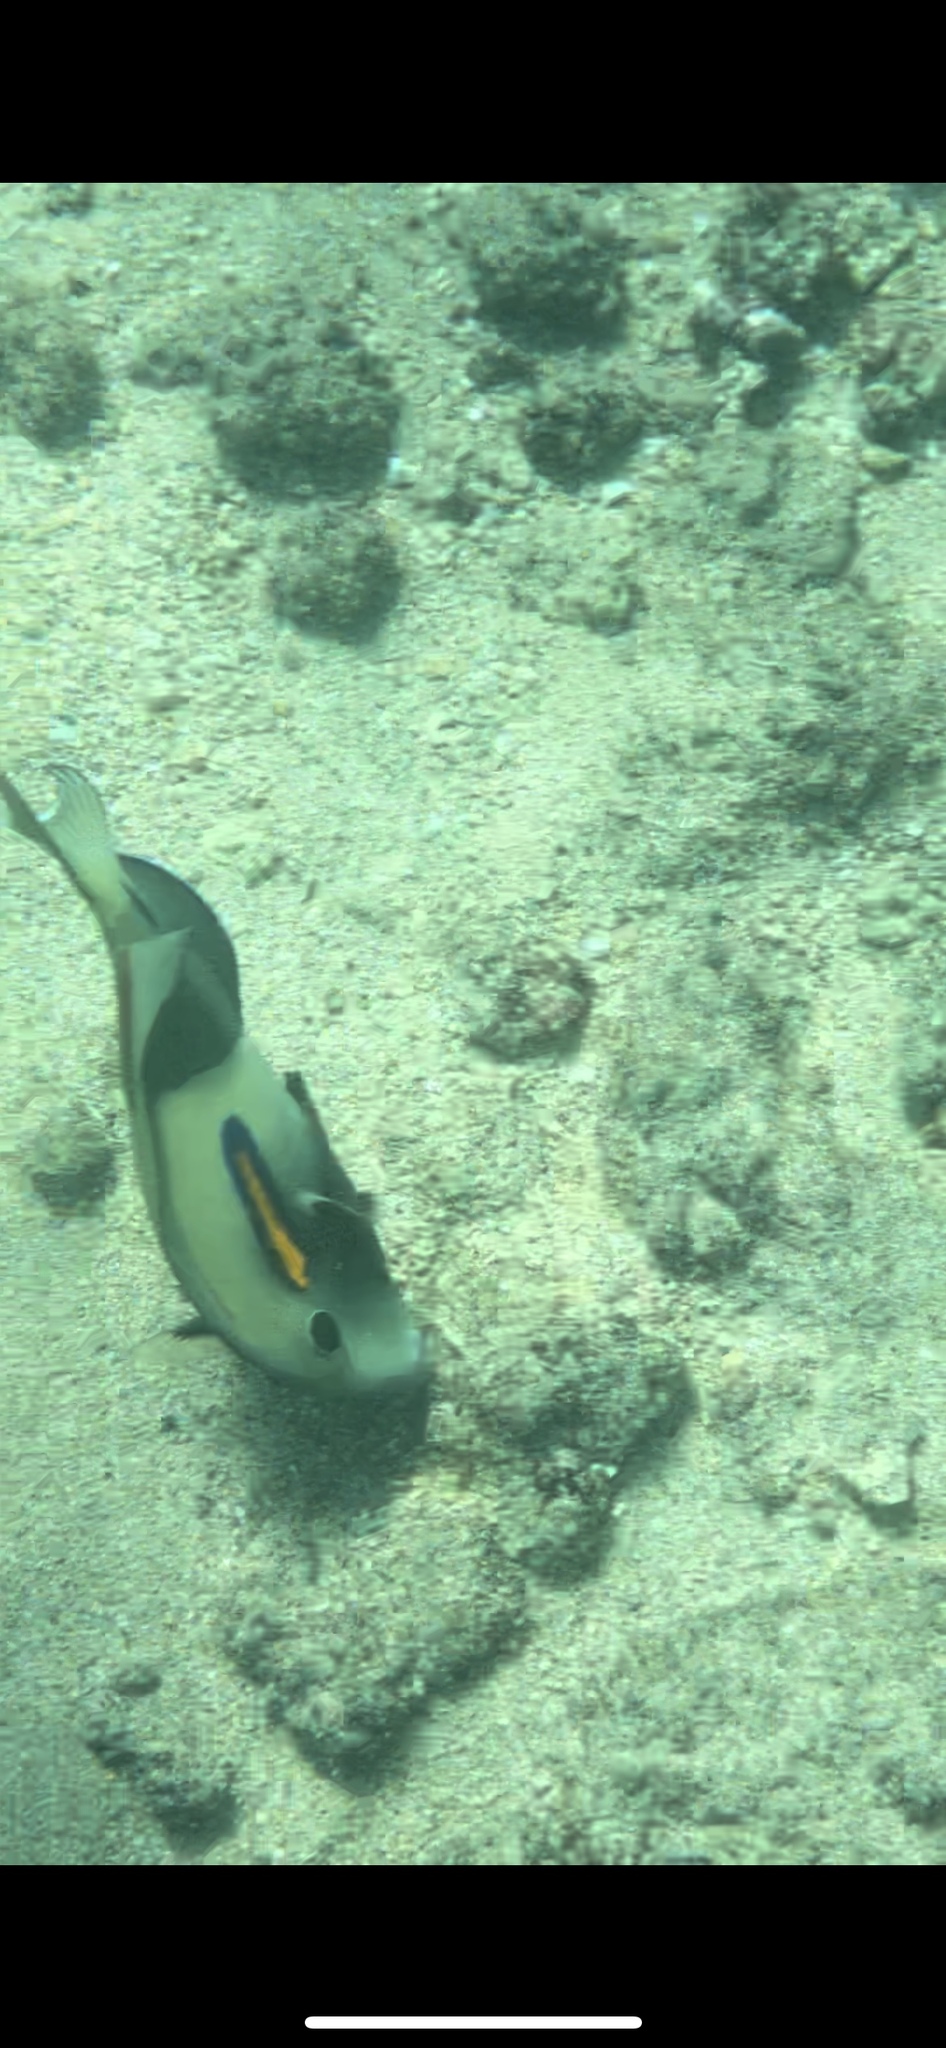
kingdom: Animalia
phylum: Chordata
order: Perciformes
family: Acanthuridae
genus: Acanthurus
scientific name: Acanthurus olivaceus
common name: Gendarme fish
